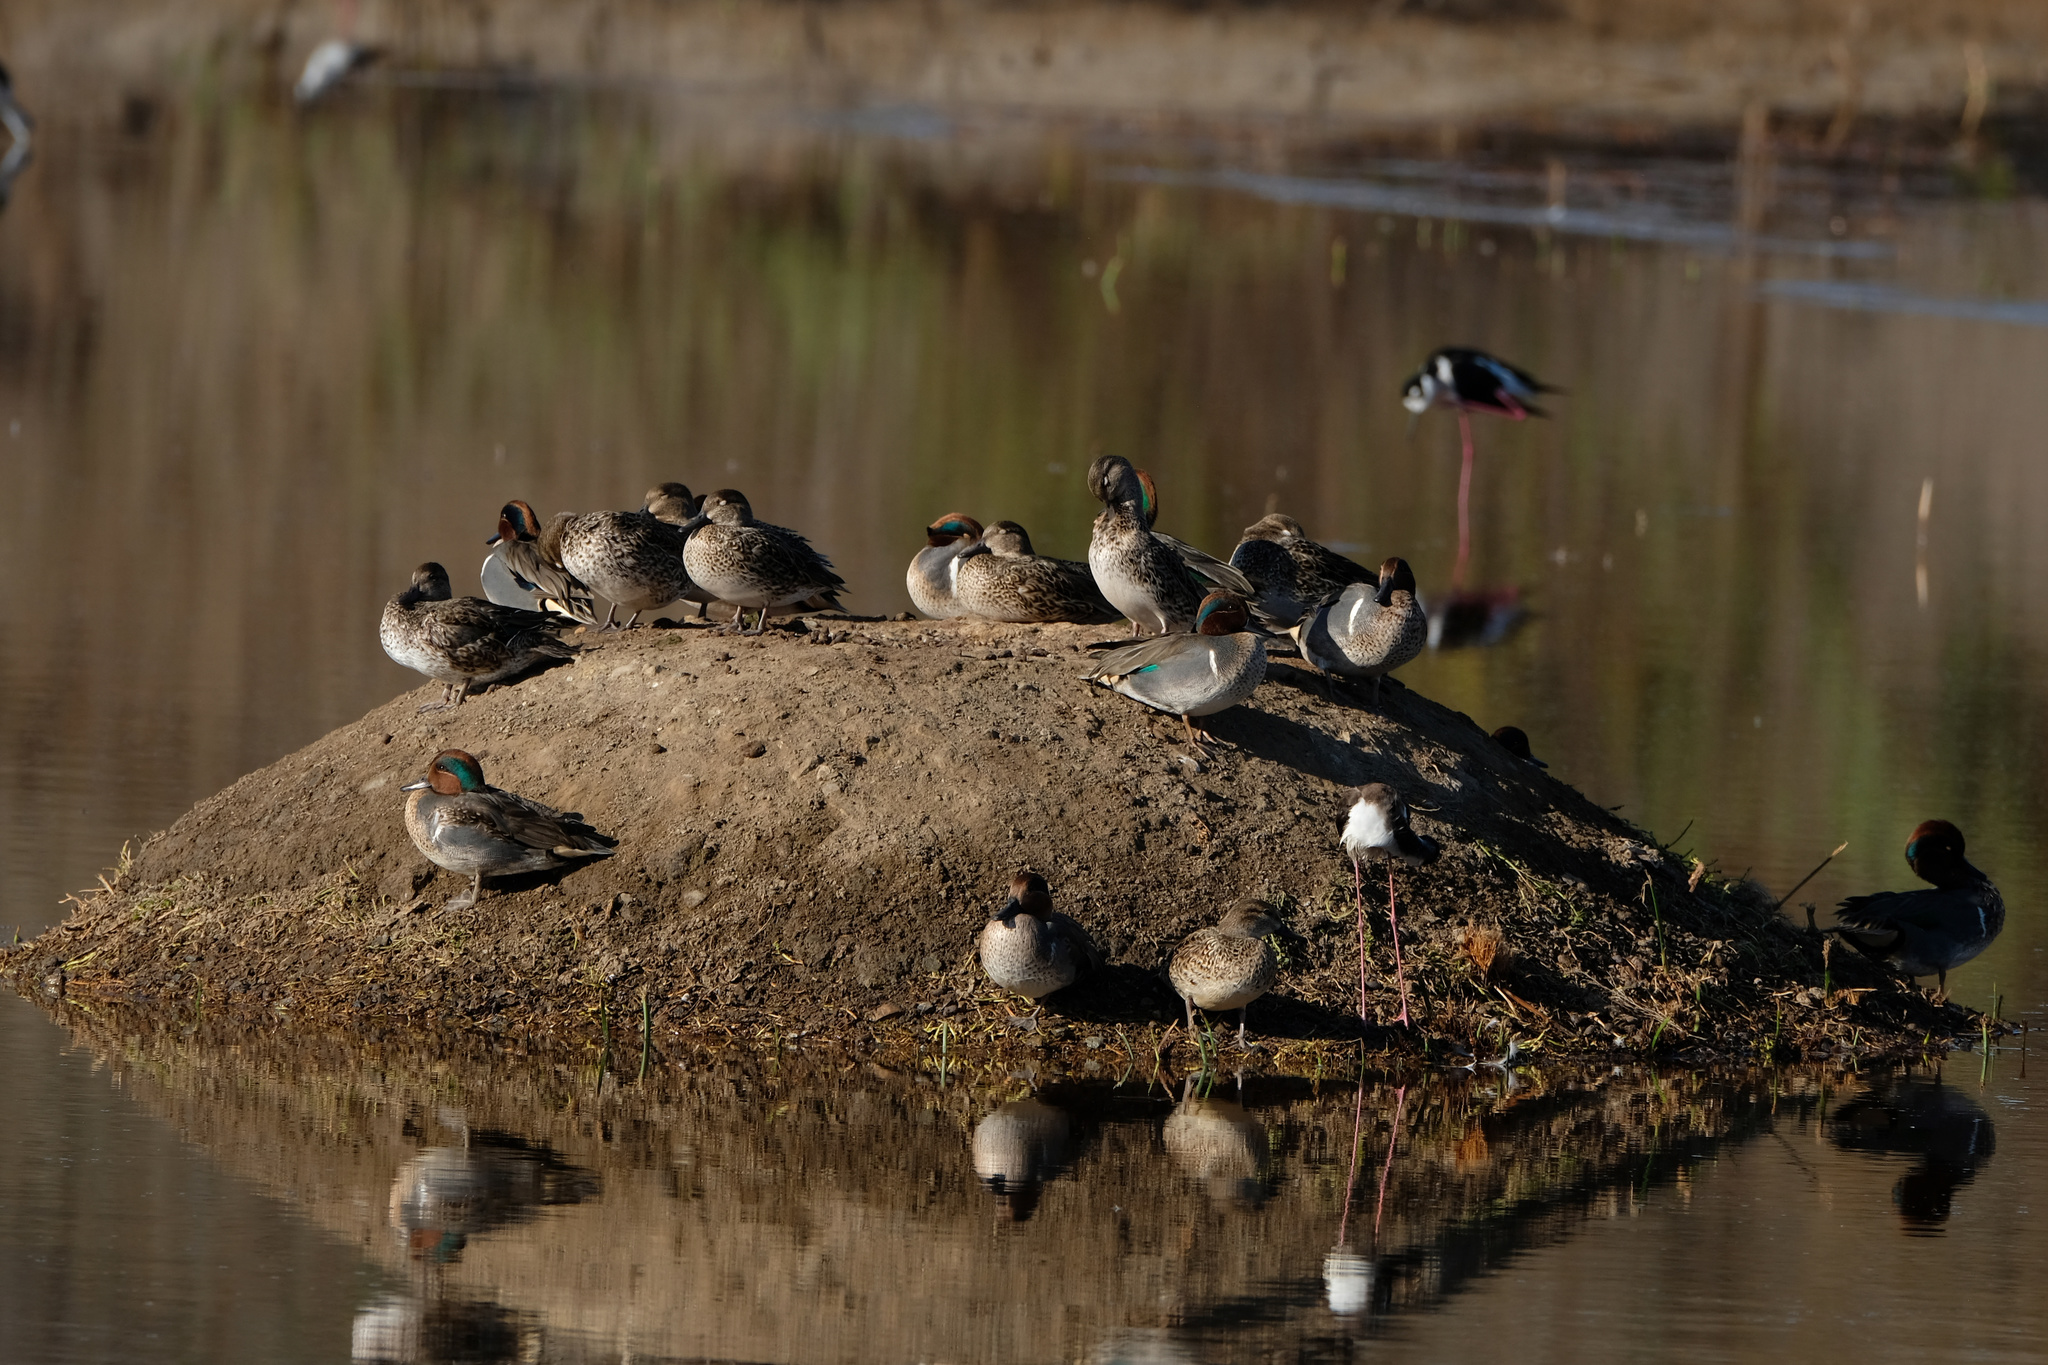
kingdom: Animalia
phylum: Chordata
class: Aves
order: Anseriformes
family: Anatidae
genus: Anas
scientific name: Anas crecca
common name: Eurasian teal
